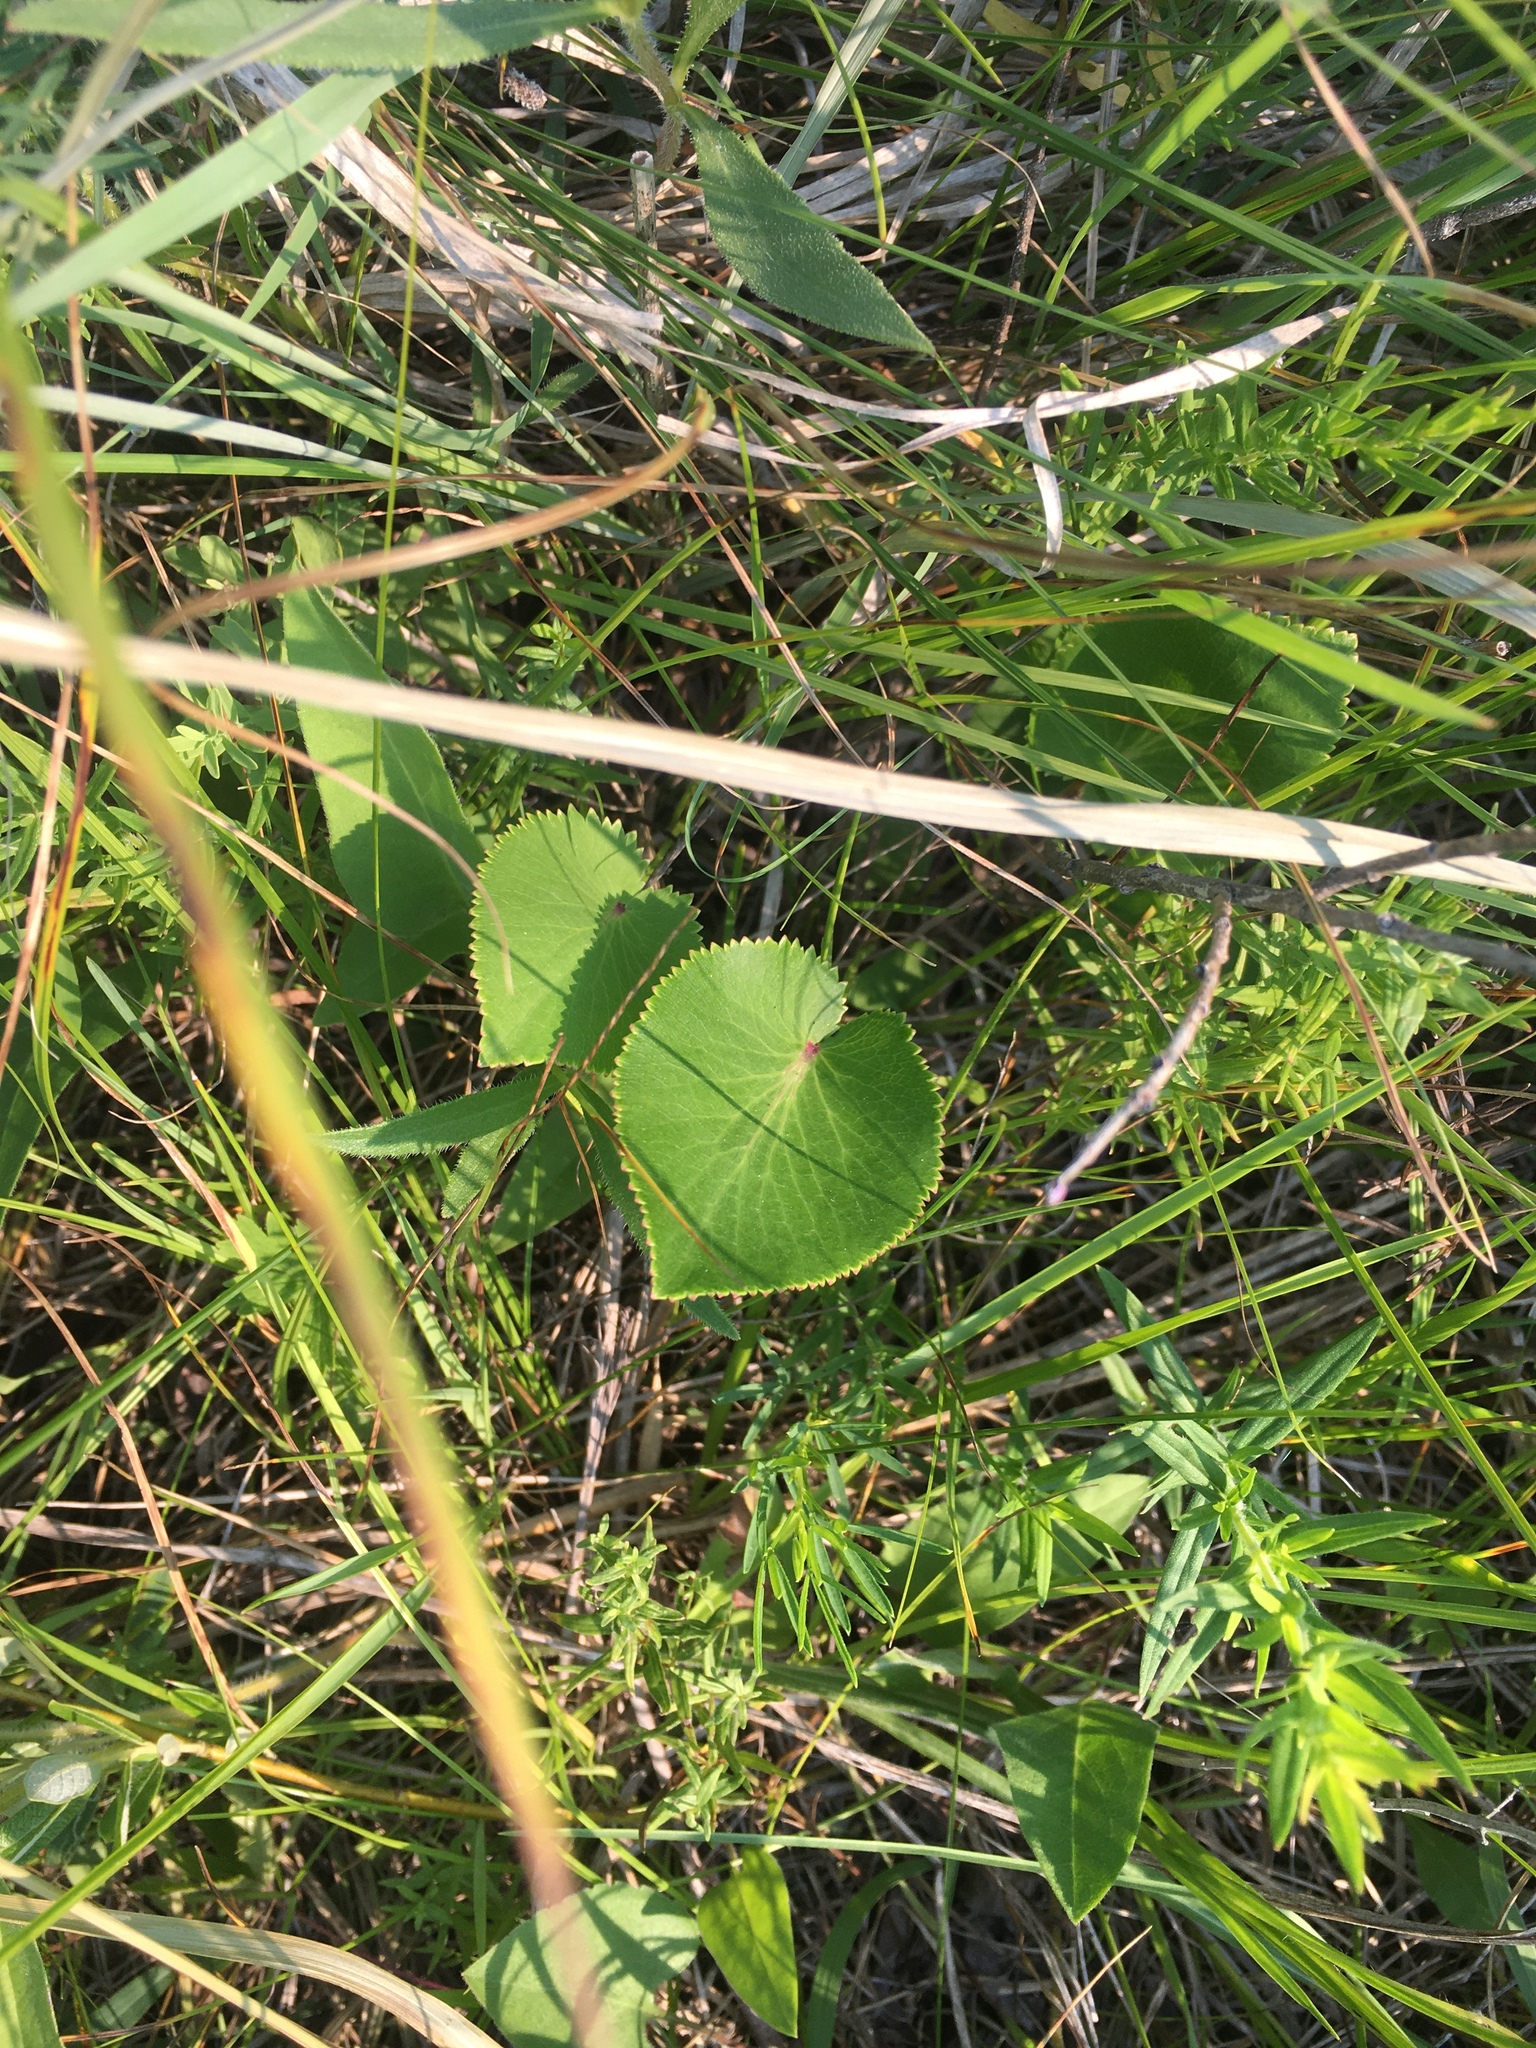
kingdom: Plantae
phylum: Tracheophyta
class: Magnoliopsida
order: Apiales
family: Apiaceae
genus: Zizia
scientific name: Zizia aptera
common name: Heart-leaved alexanders
